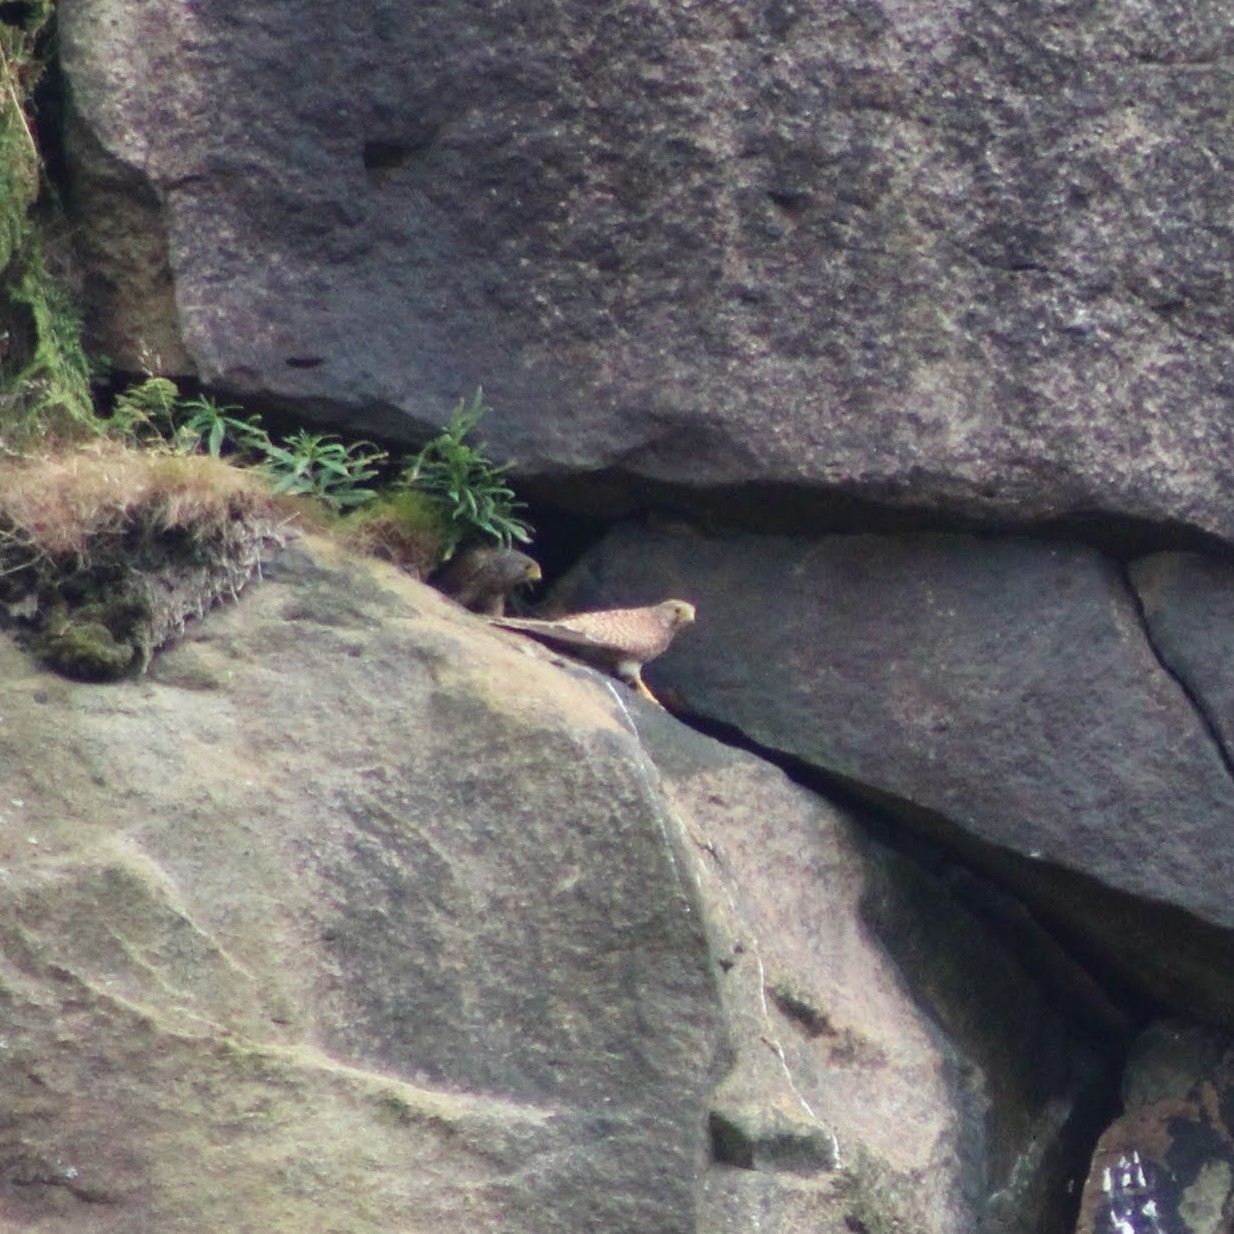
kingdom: Animalia
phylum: Chordata
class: Aves
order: Falconiformes
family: Falconidae
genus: Falco
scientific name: Falco tinnunculus
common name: Common kestrel
